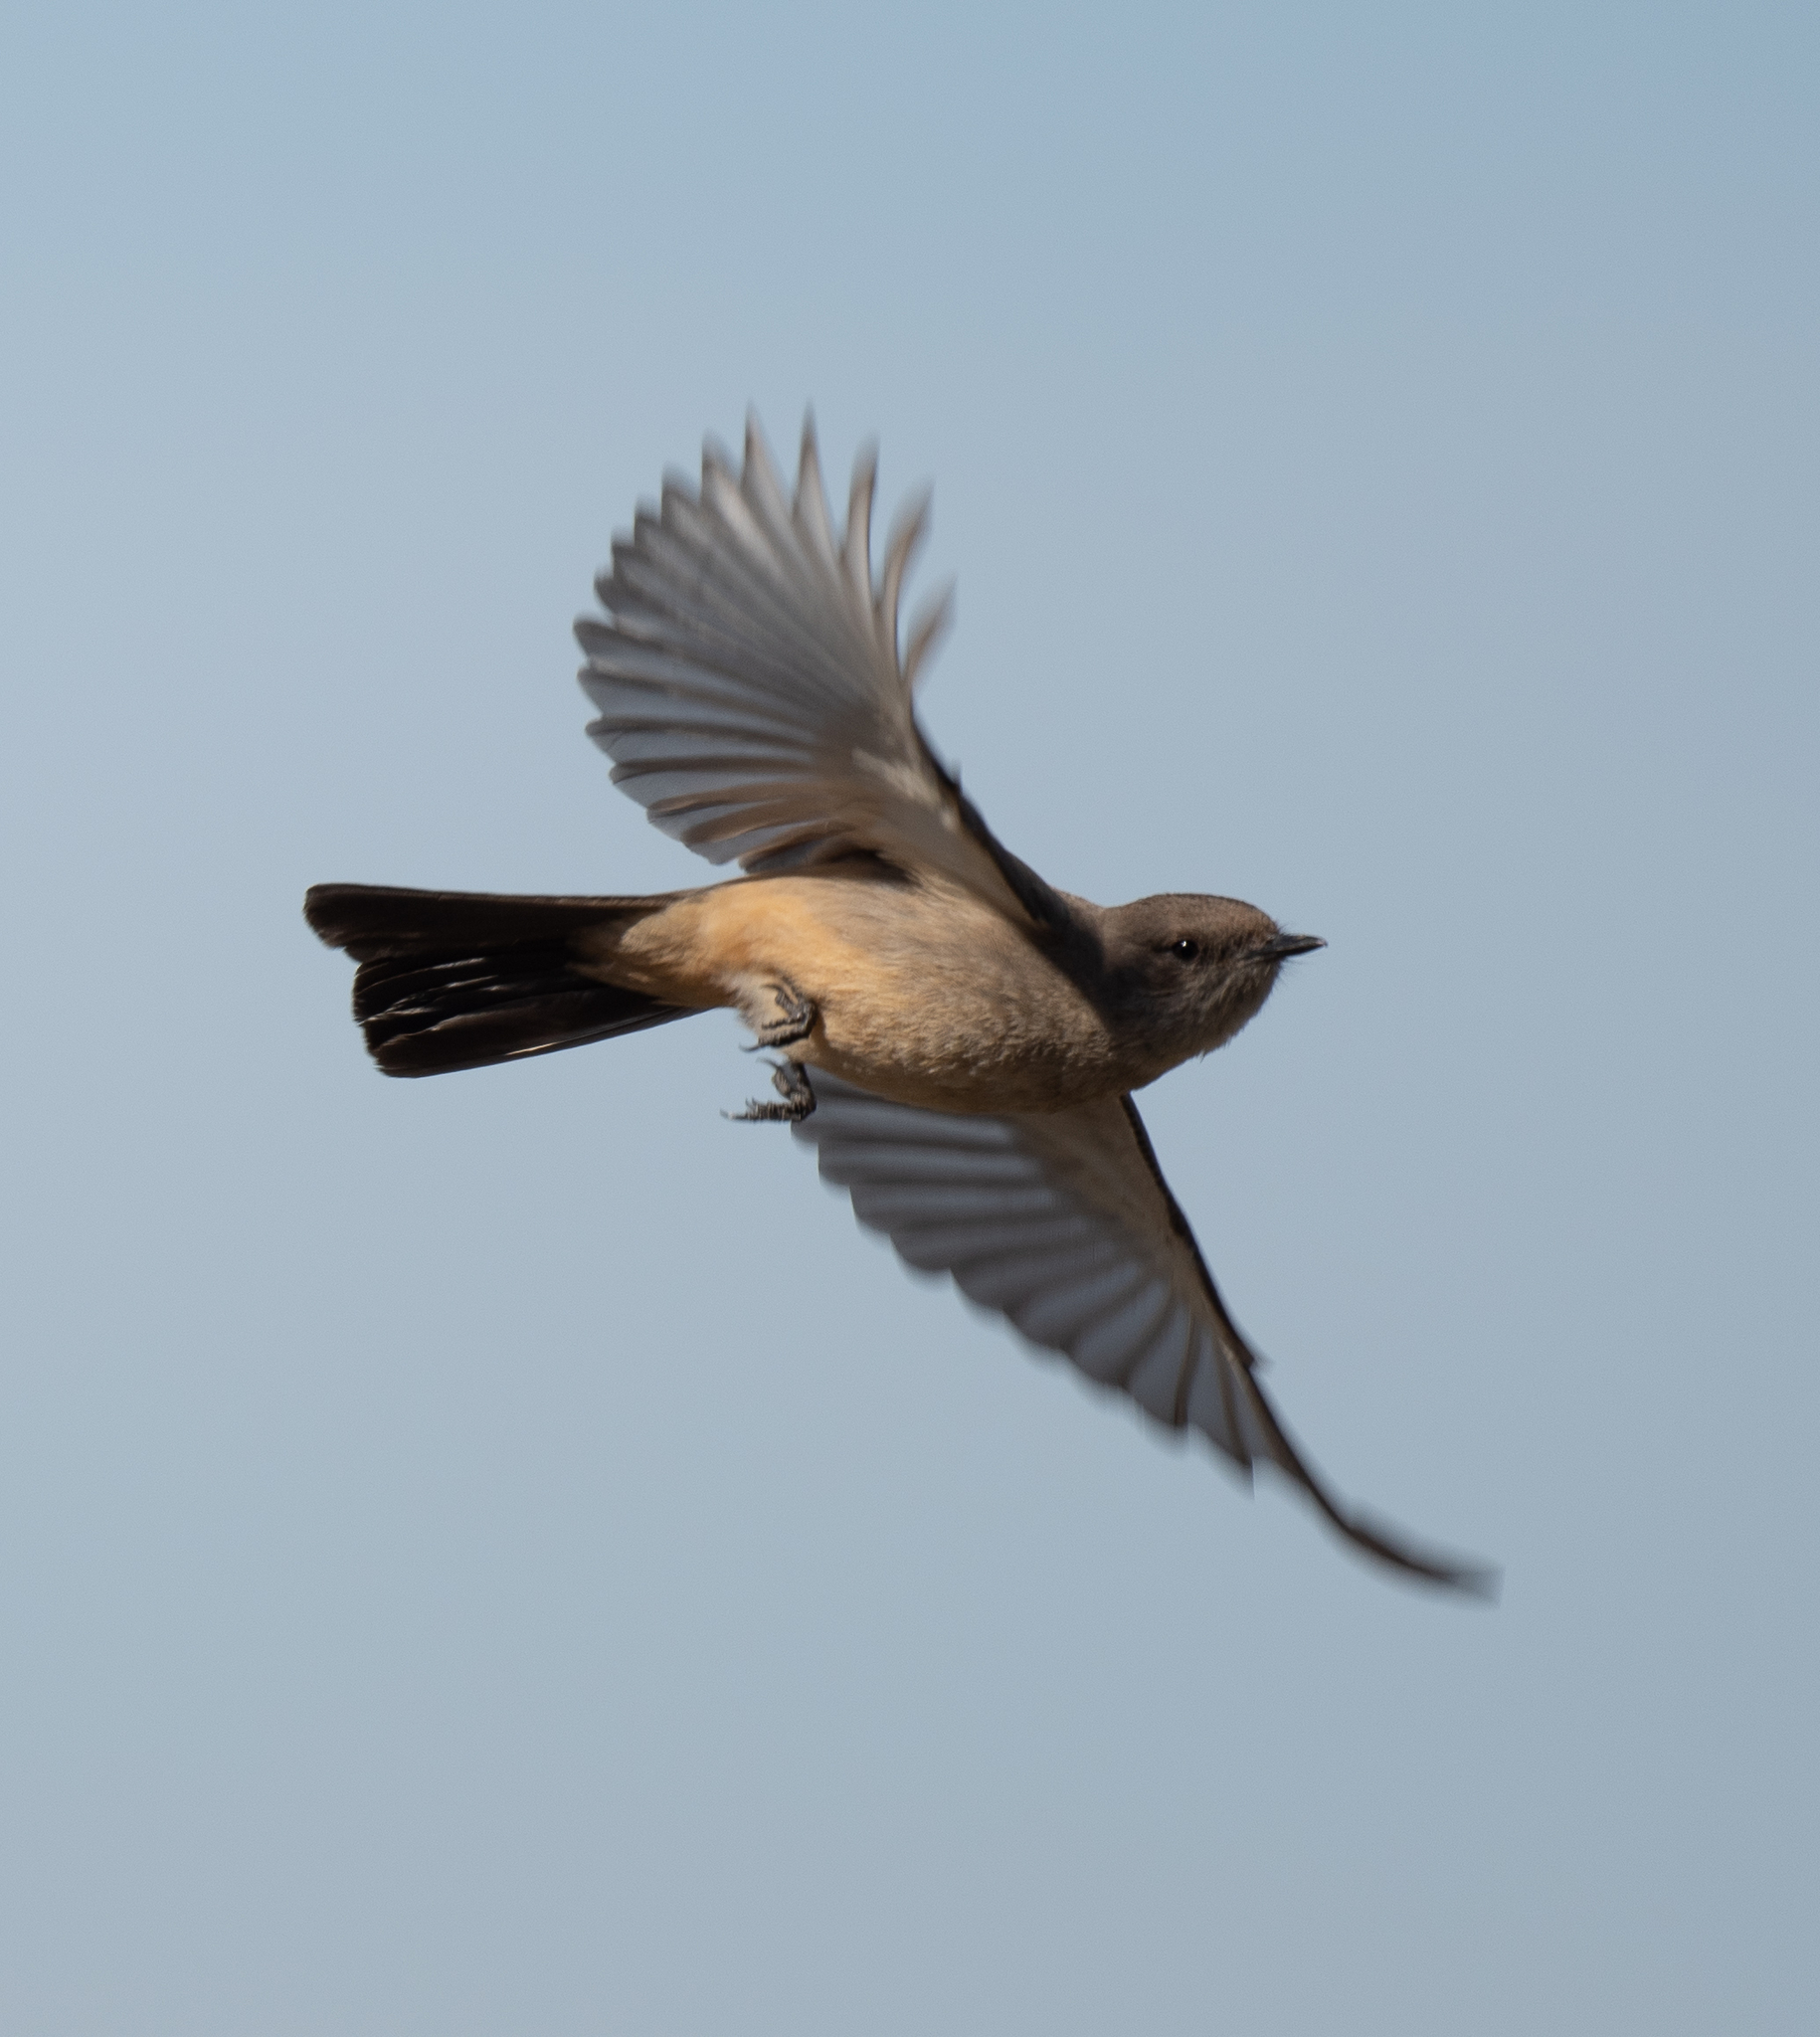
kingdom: Animalia
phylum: Chordata
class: Aves
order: Passeriformes
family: Tyrannidae
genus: Sayornis
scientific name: Sayornis saya
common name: Say's phoebe
